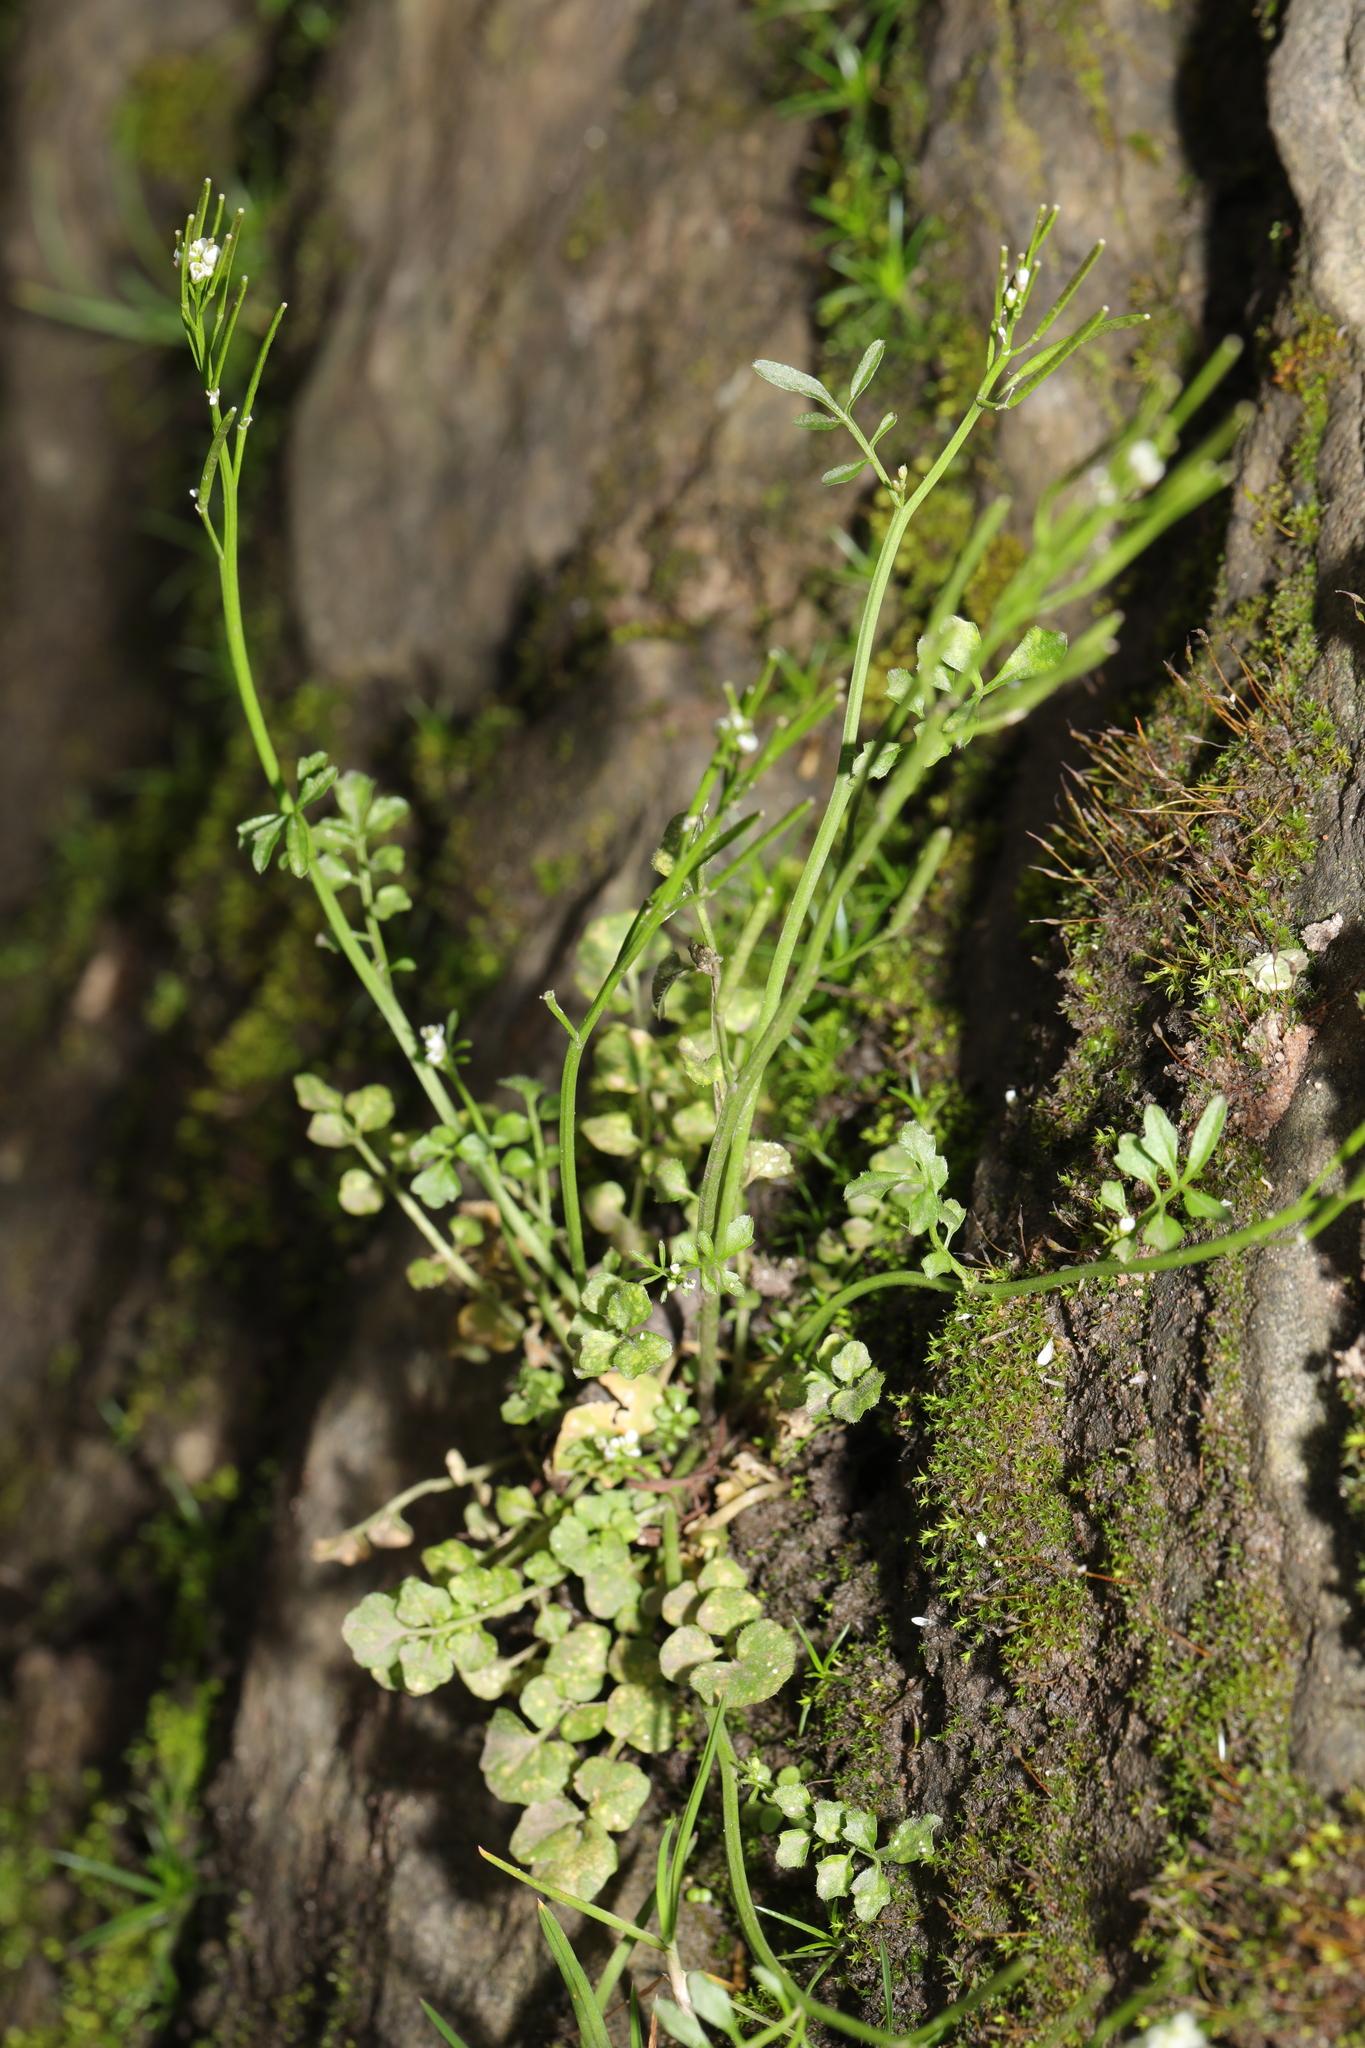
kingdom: Plantae
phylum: Tracheophyta
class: Magnoliopsida
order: Brassicales
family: Brassicaceae
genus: Cardamine
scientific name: Cardamine flexuosa
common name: Woodland bittercress
